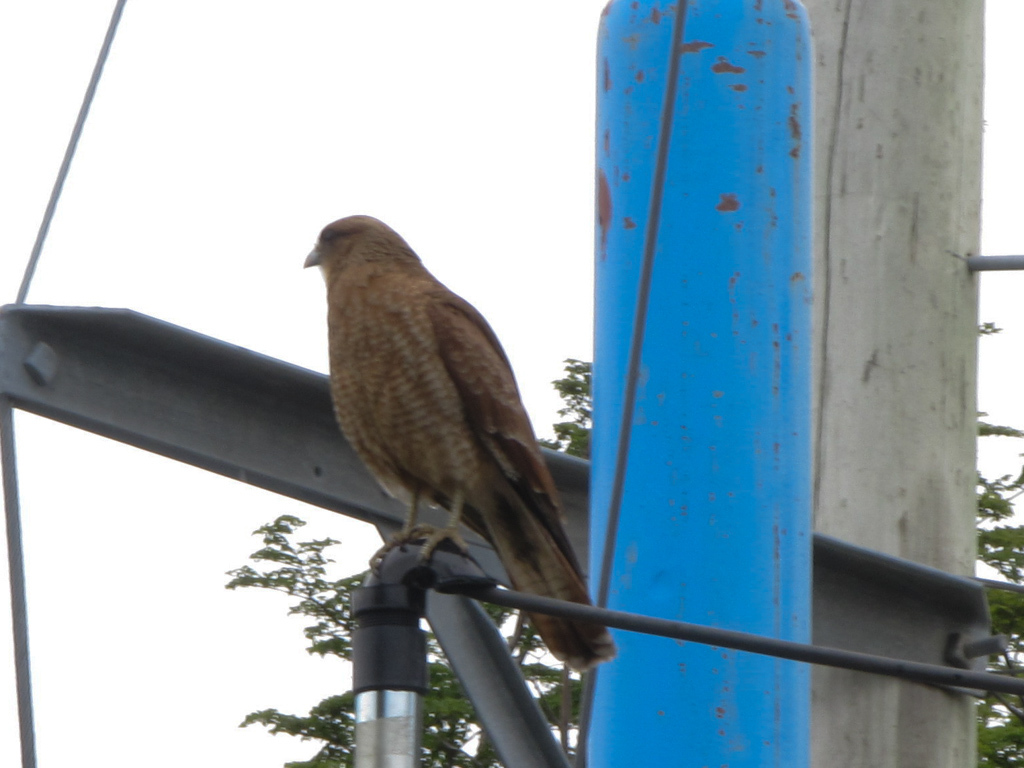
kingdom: Animalia
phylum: Chordata
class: Aves
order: Falconiformes
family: Falconidae
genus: Daptrius
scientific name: Daptrius
